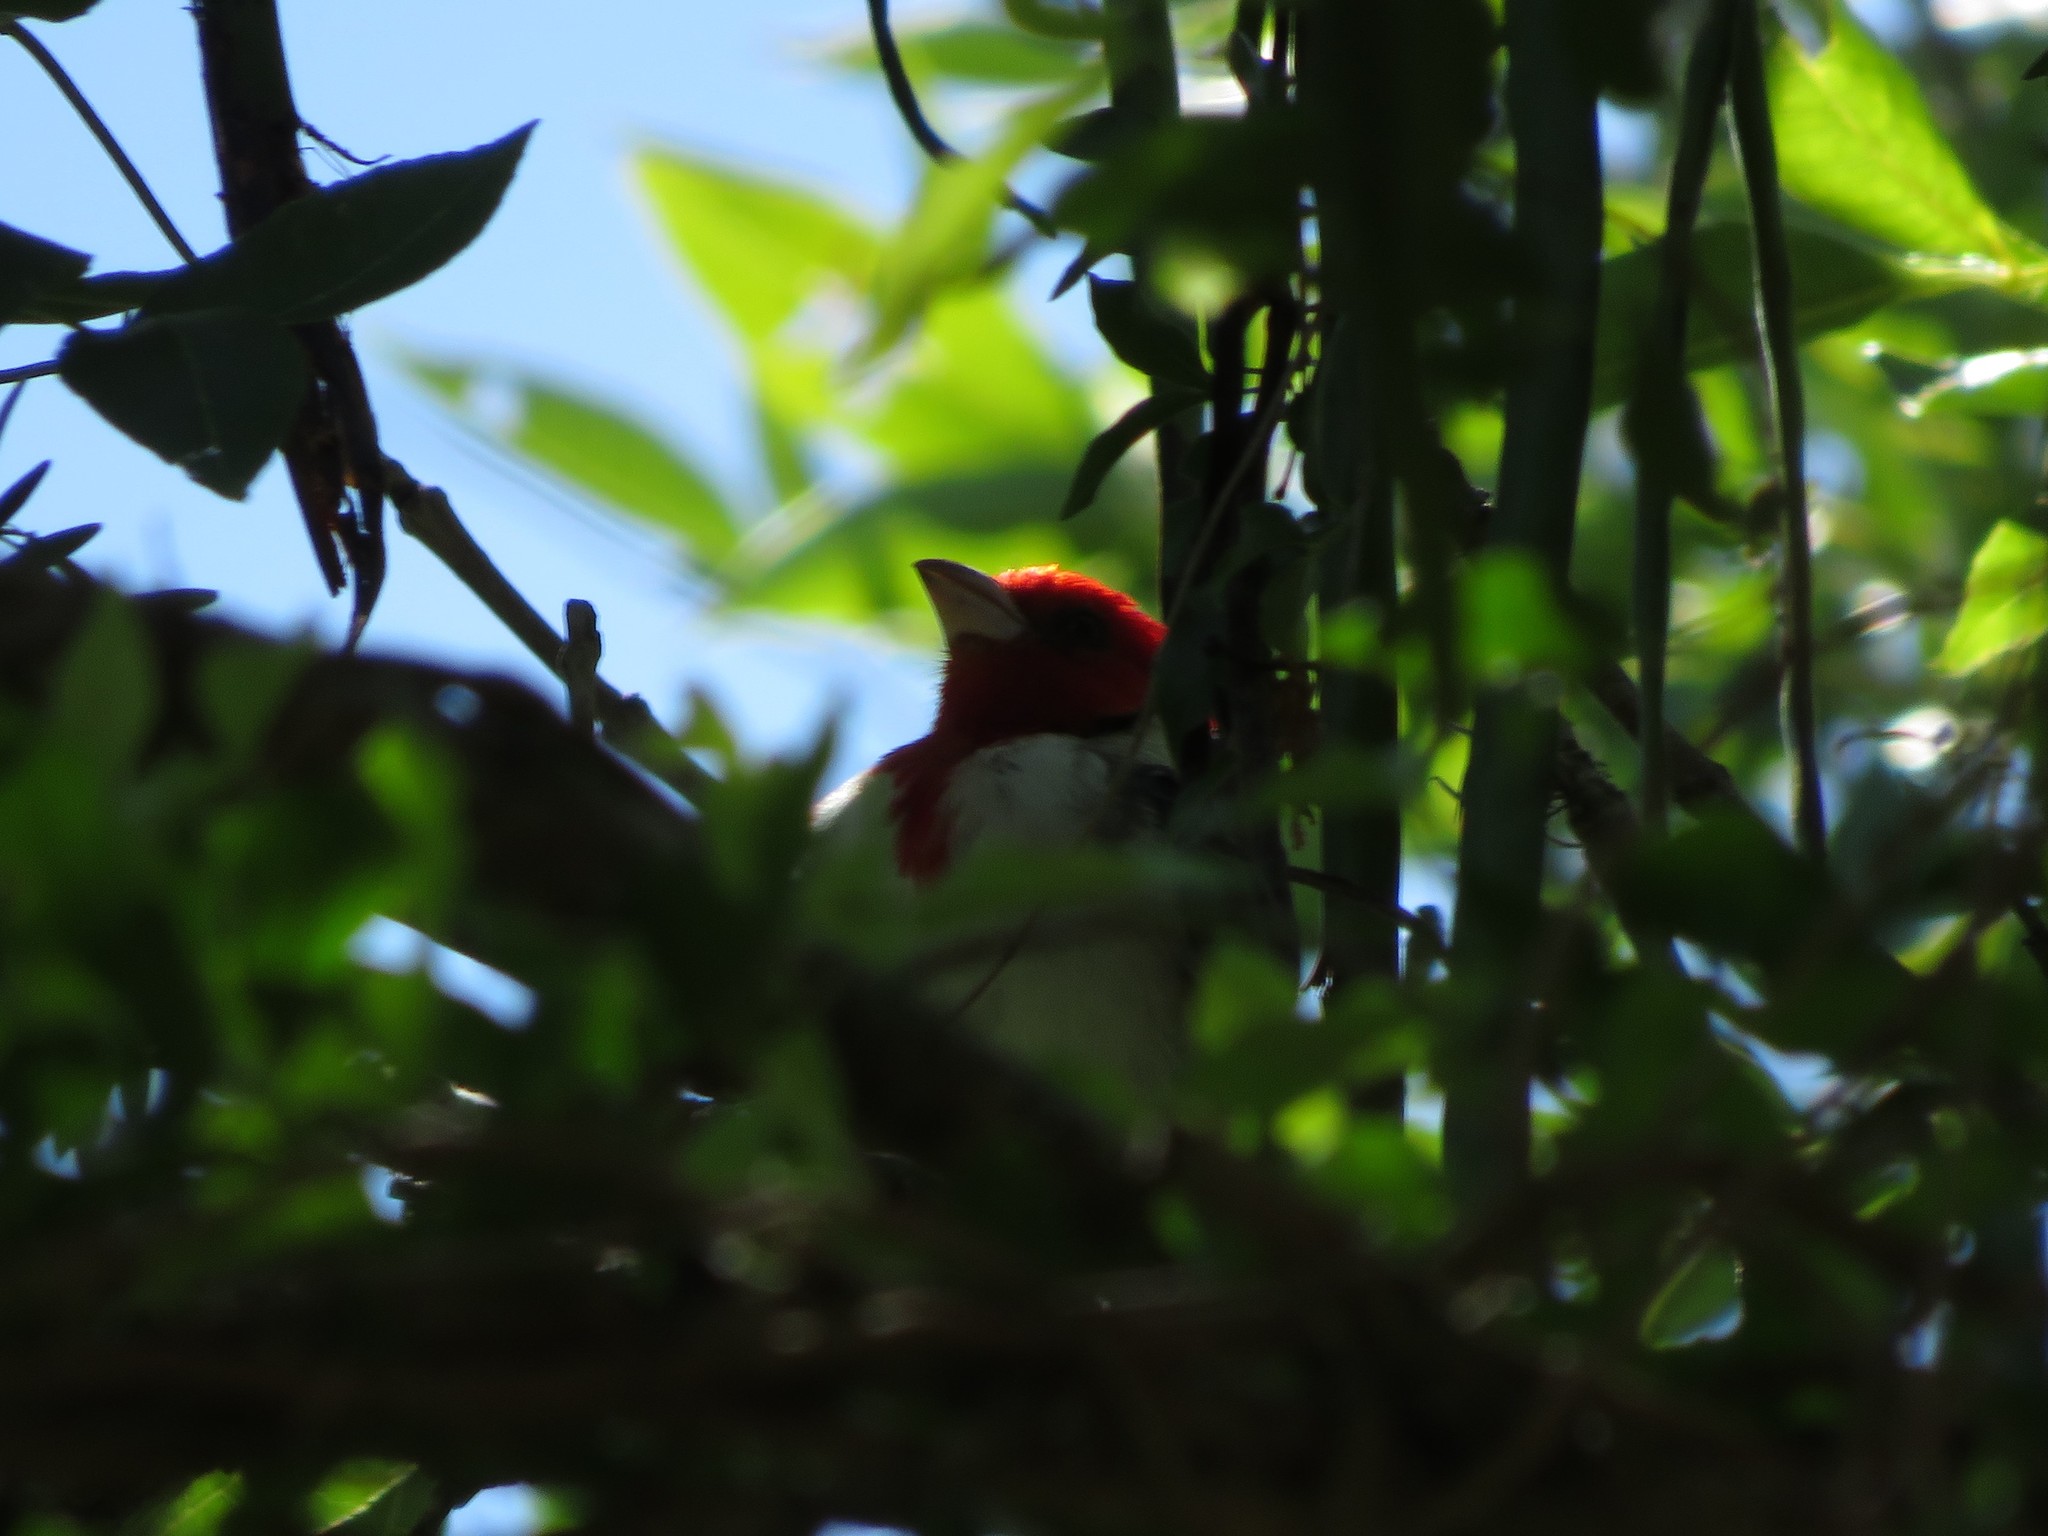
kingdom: Animalia
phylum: Chordata
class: Aves
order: Passeriformes
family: Thraupidae
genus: Paroaria
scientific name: Paroaria coronata
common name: Red-crested cardinal
